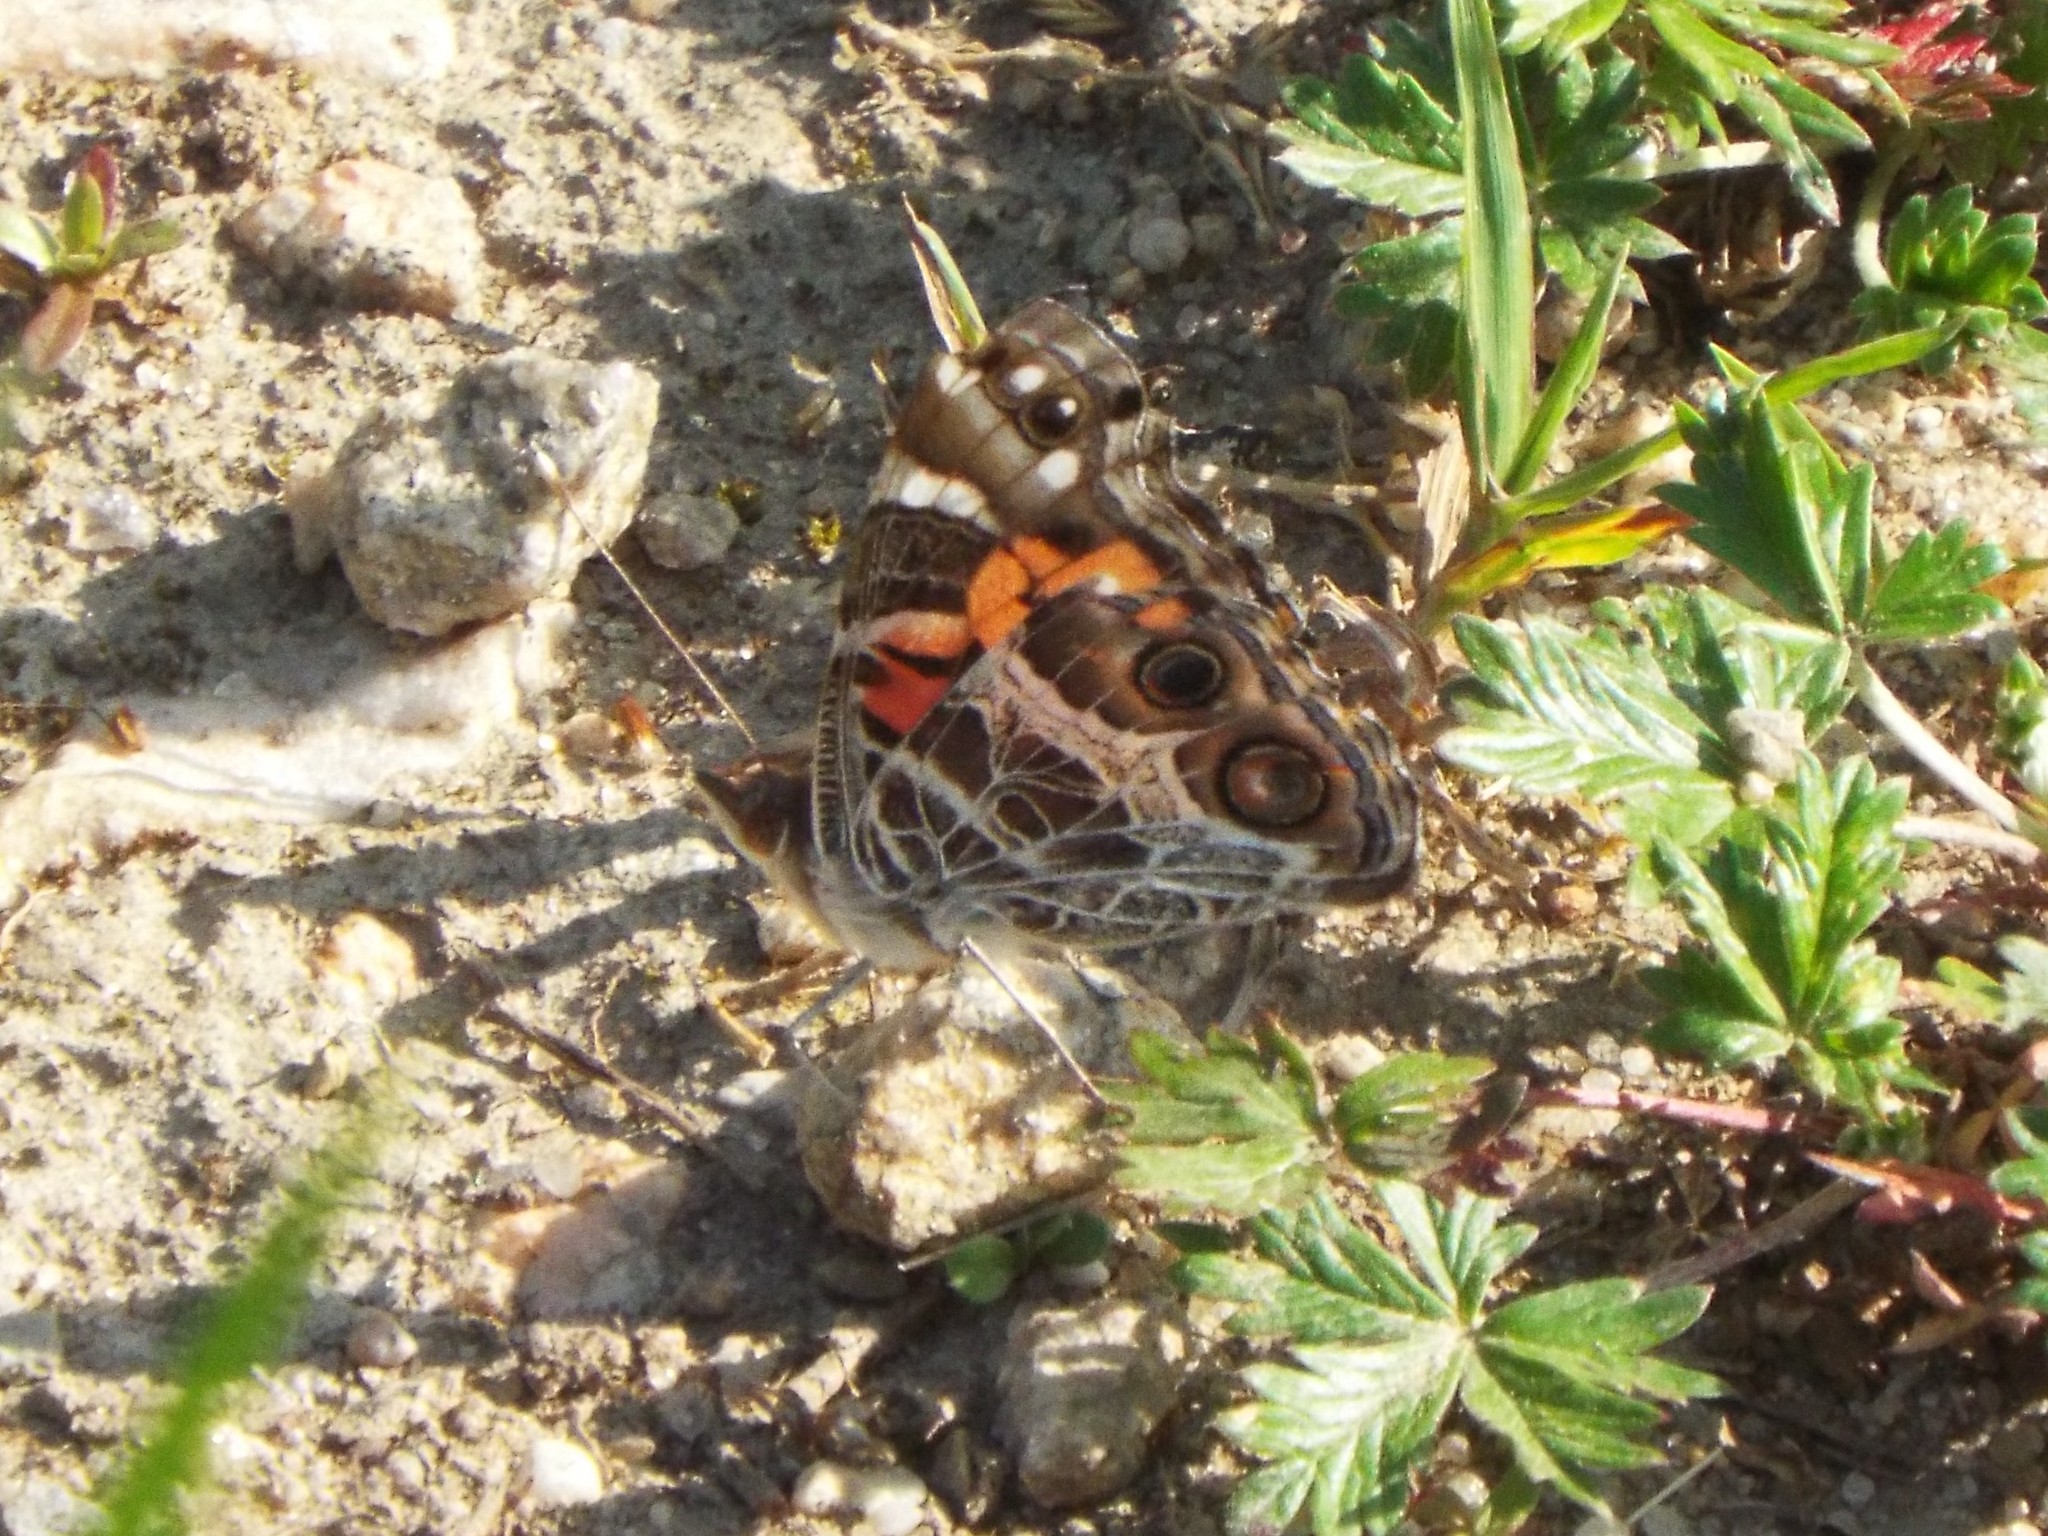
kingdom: Animalia
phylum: Arthropoda
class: Insecta
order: Lepidoptera
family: Nymphalidae
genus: Vanessa
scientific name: Vanessa virginiensis
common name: American lady
